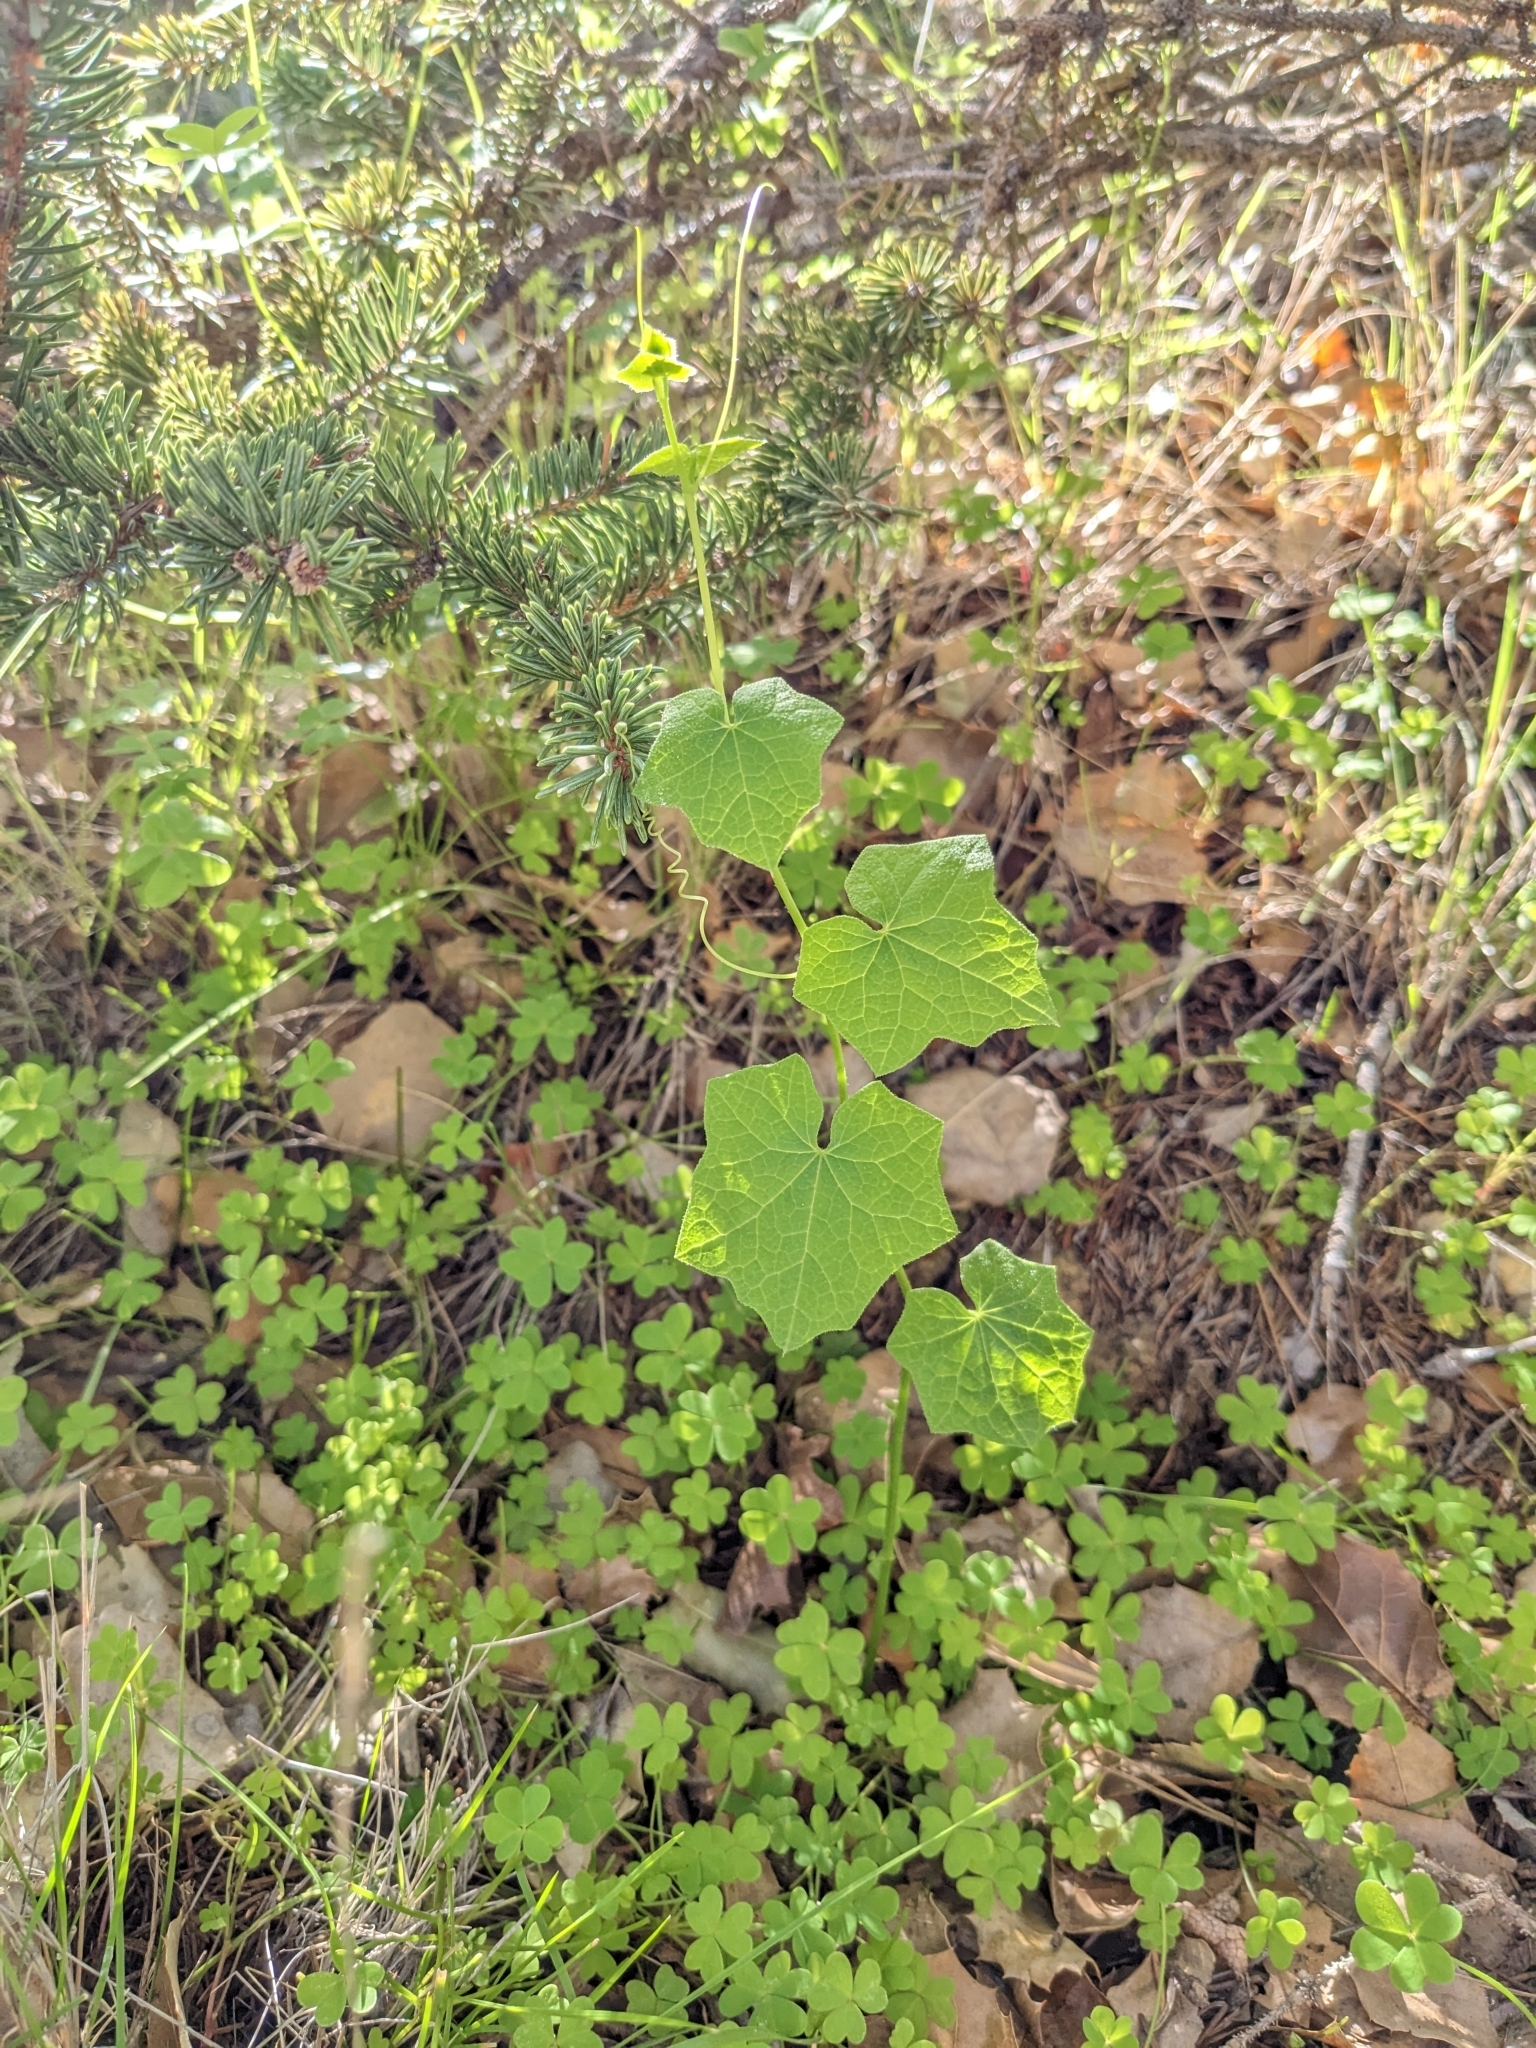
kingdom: Plantae
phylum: Tracheophyta
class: Magnoliopsida
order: Cucurbitales
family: Cucurbitaceae
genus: Marah
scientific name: Marah fabacea
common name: California manroot
